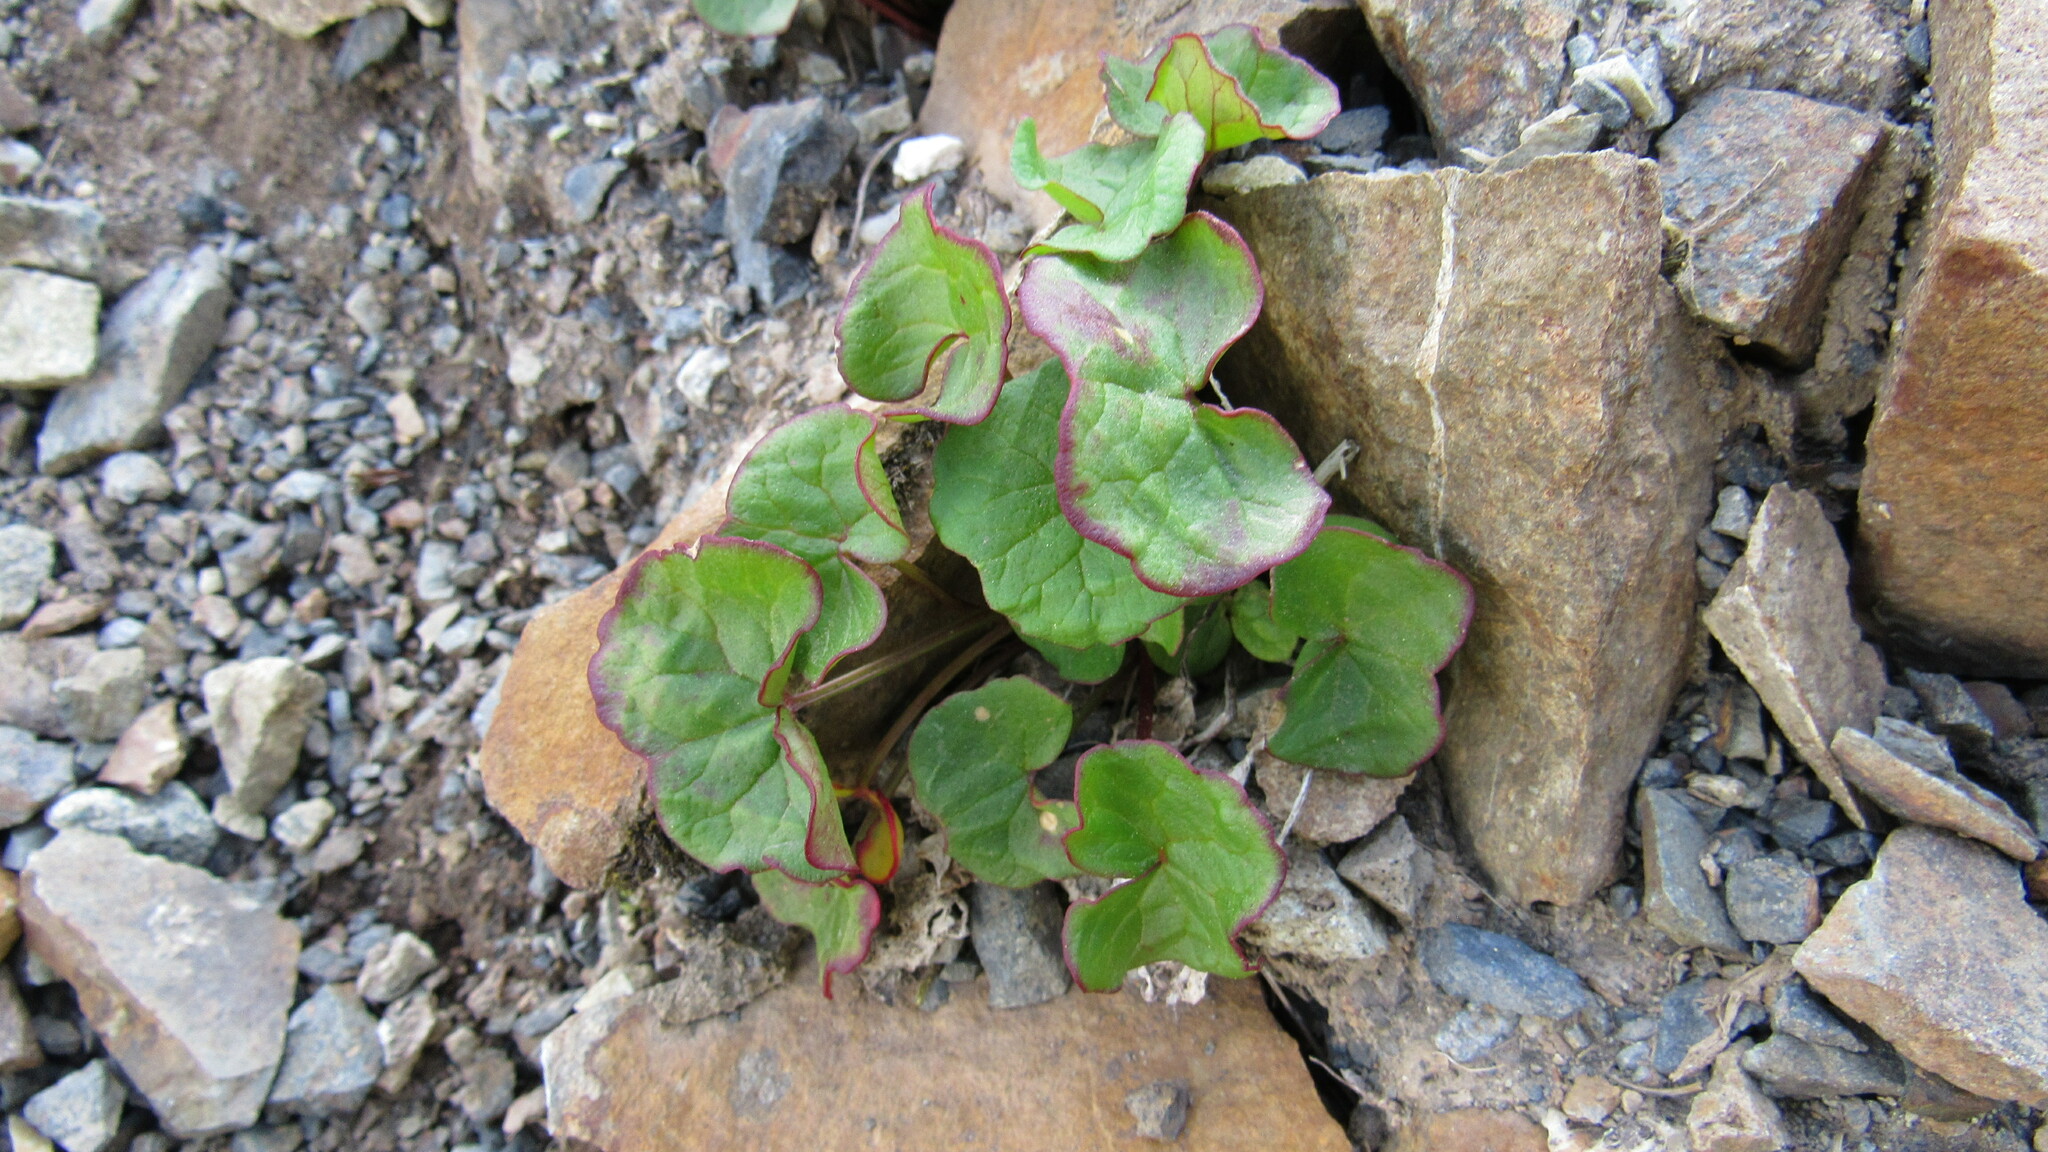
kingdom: Plantae
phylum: Tracheophyta
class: Magnoliopsida
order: Caryophyllales
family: Polygonaceae
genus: Oxyria
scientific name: Oxyria digyna
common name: Alpine mountain-sorrel
